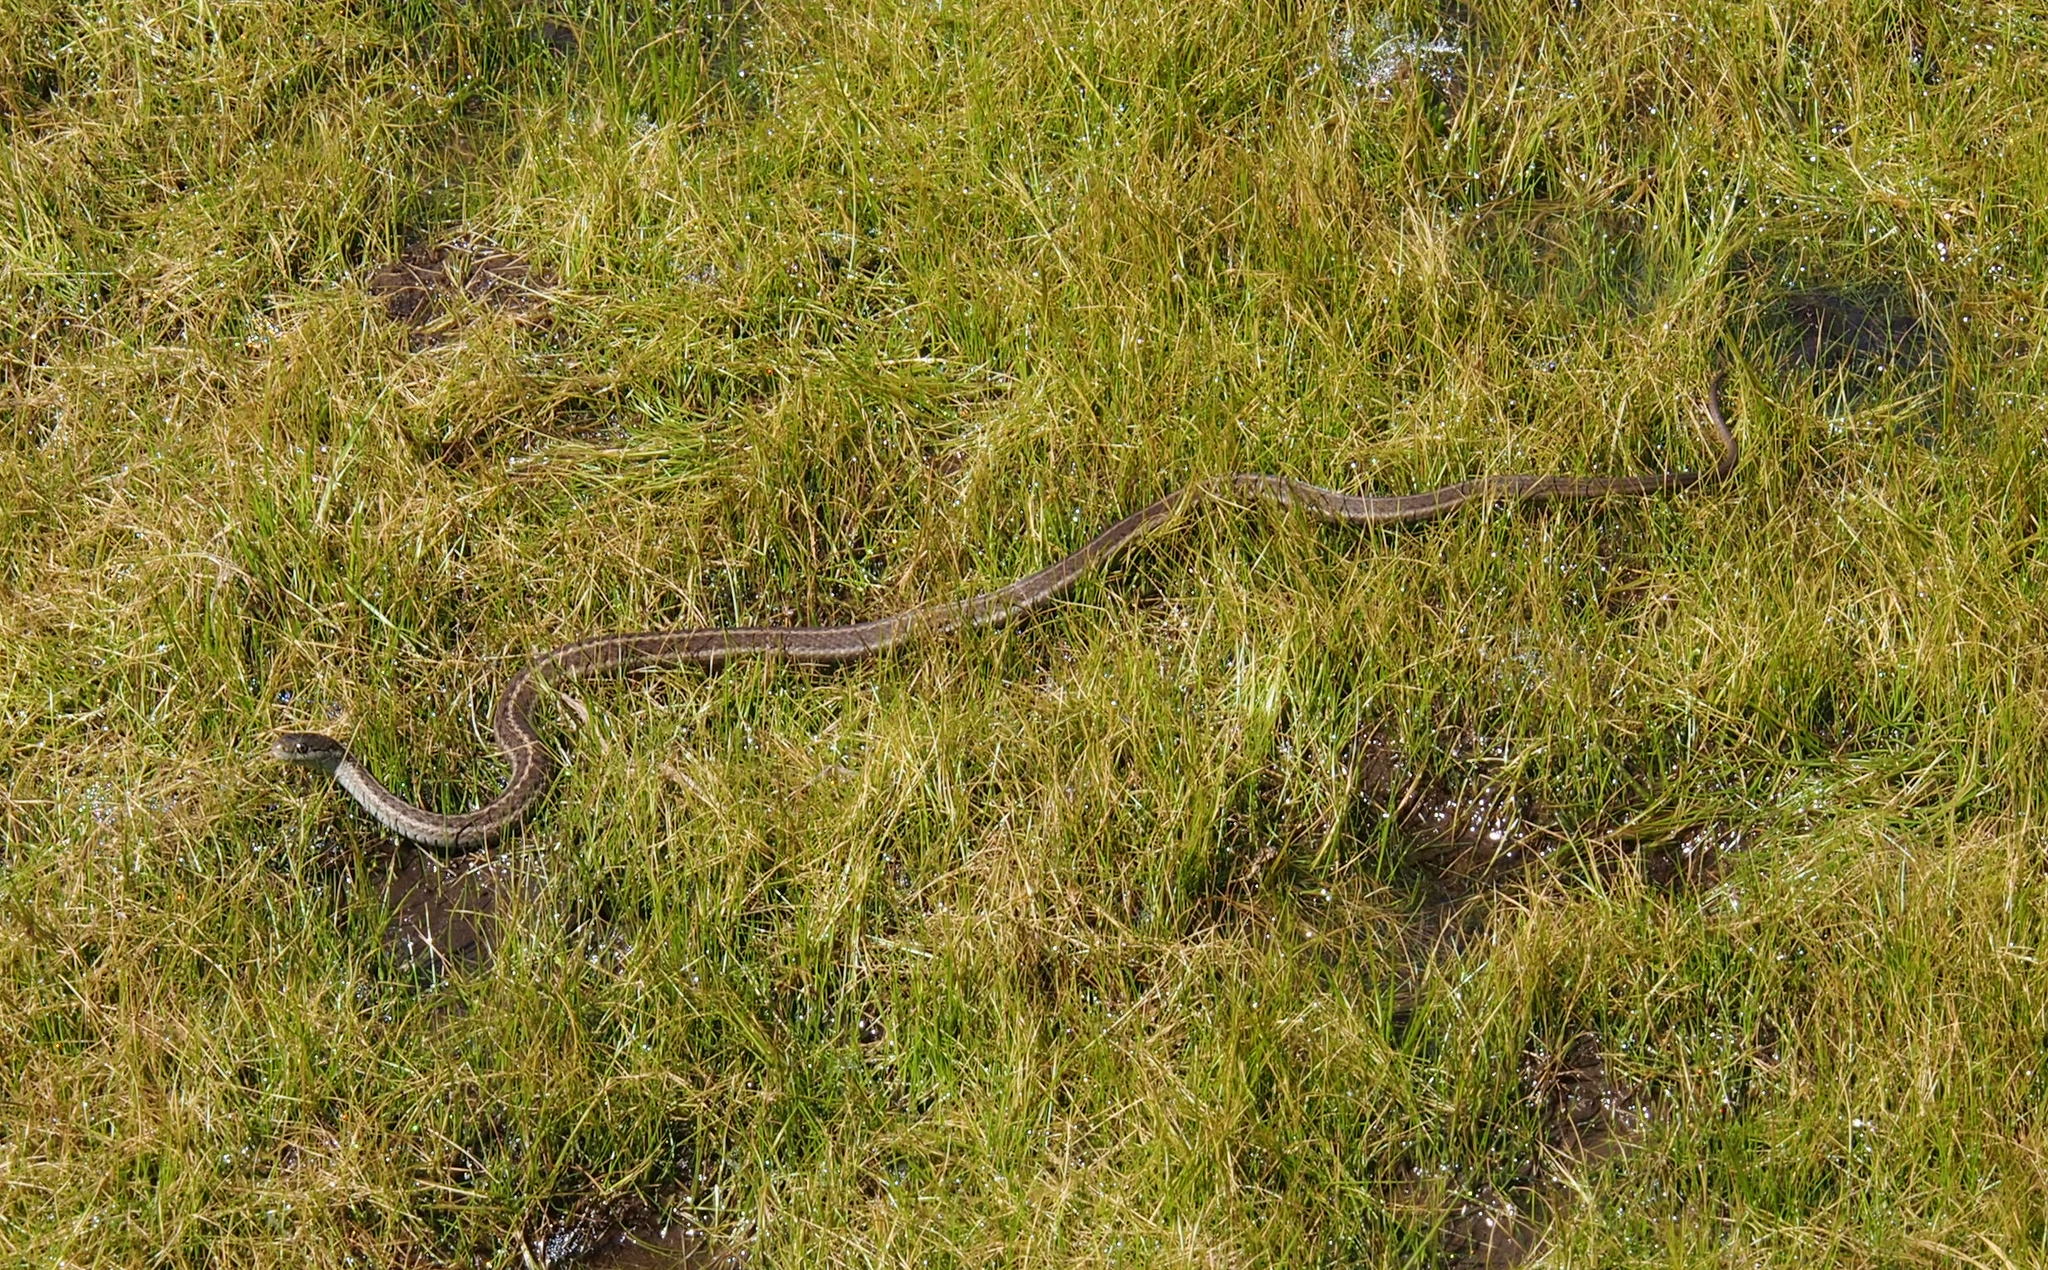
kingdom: Animalia
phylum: Chordata
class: Squamata
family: Colubridae
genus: Thamnophis
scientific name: Thamnophis elegans
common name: Western terrestrial garter snake
